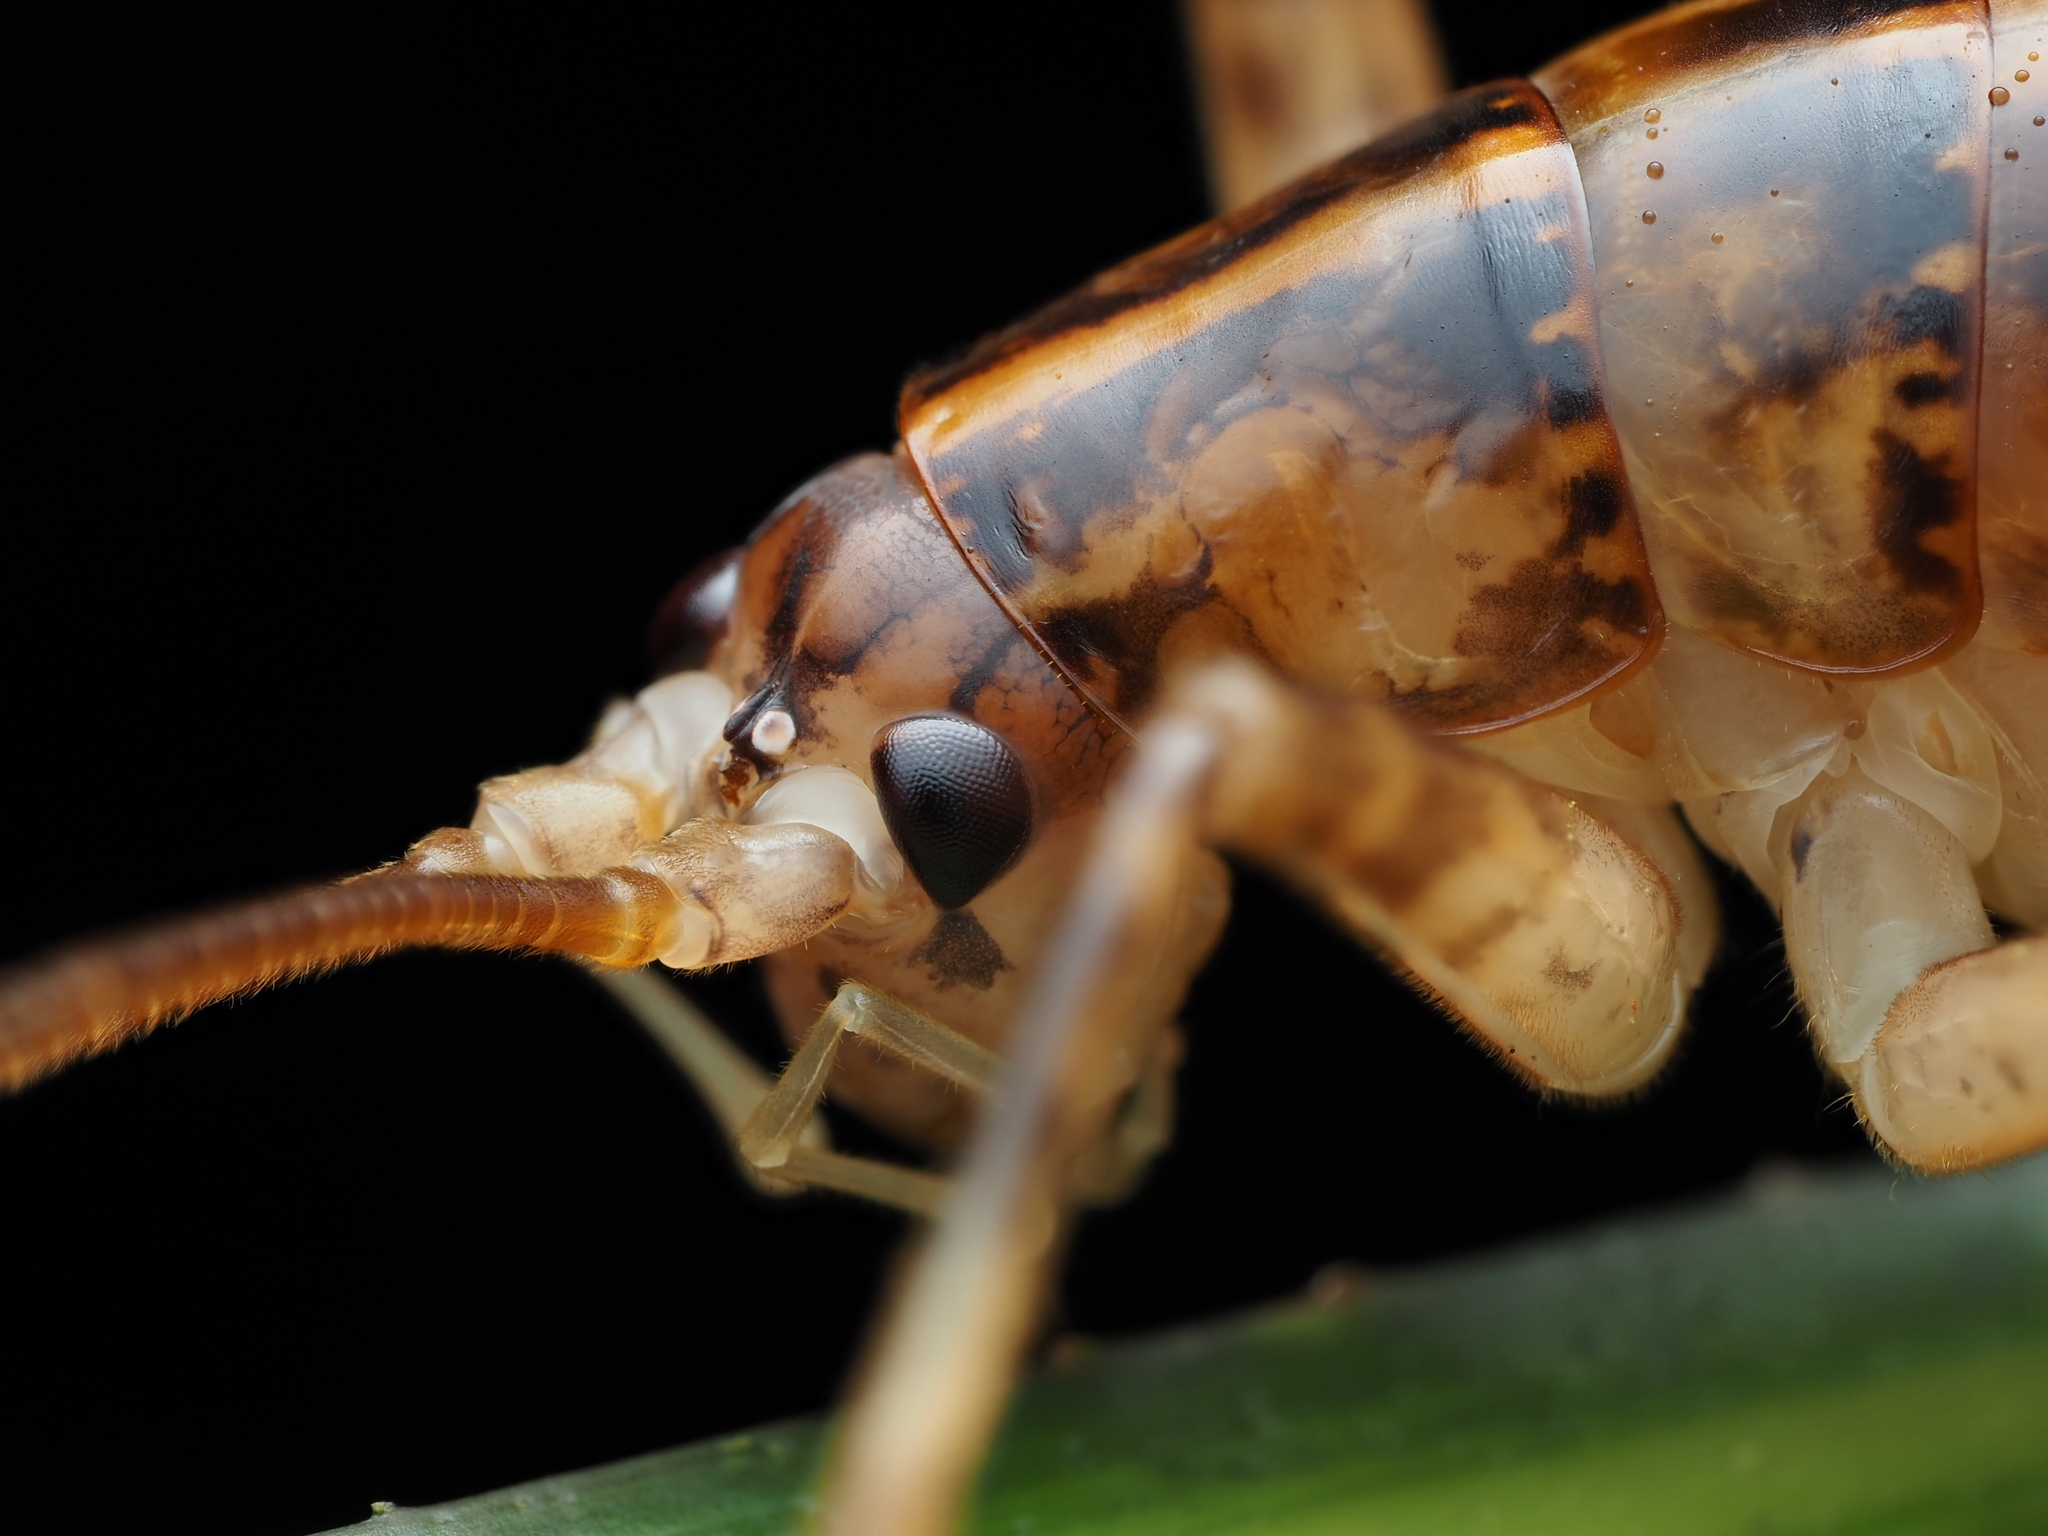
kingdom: Animalia
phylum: Arthropoda
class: Insecta
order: Orthoptera
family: Rhaphidophoridae
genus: Talitropsis
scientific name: Talitropsis sedilloti
